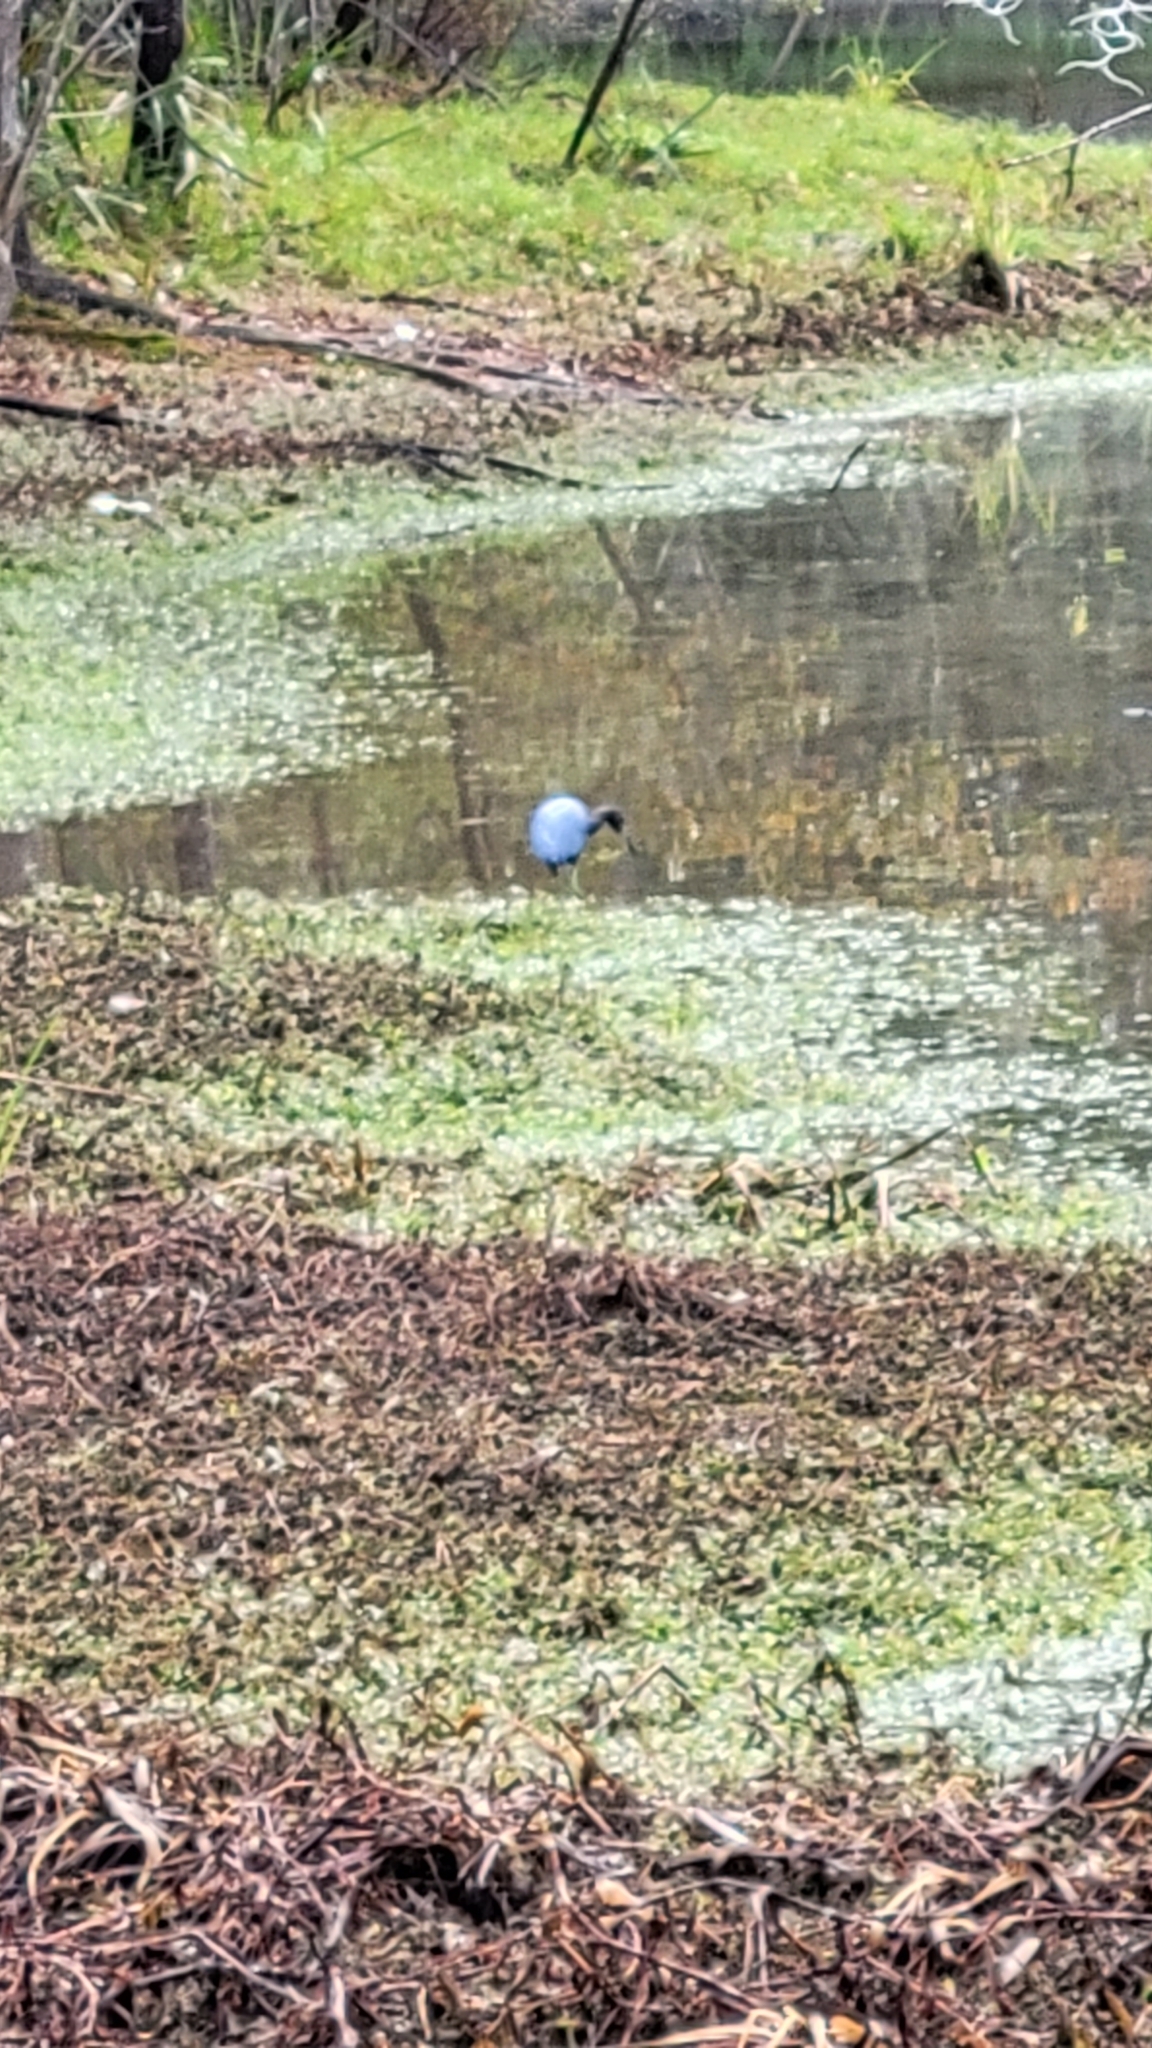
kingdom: Animalia
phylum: Chordata
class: Aves
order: Pelecaniformes
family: Ardeidae
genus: Egretta
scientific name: Egretta caerulea
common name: Little blue heron
